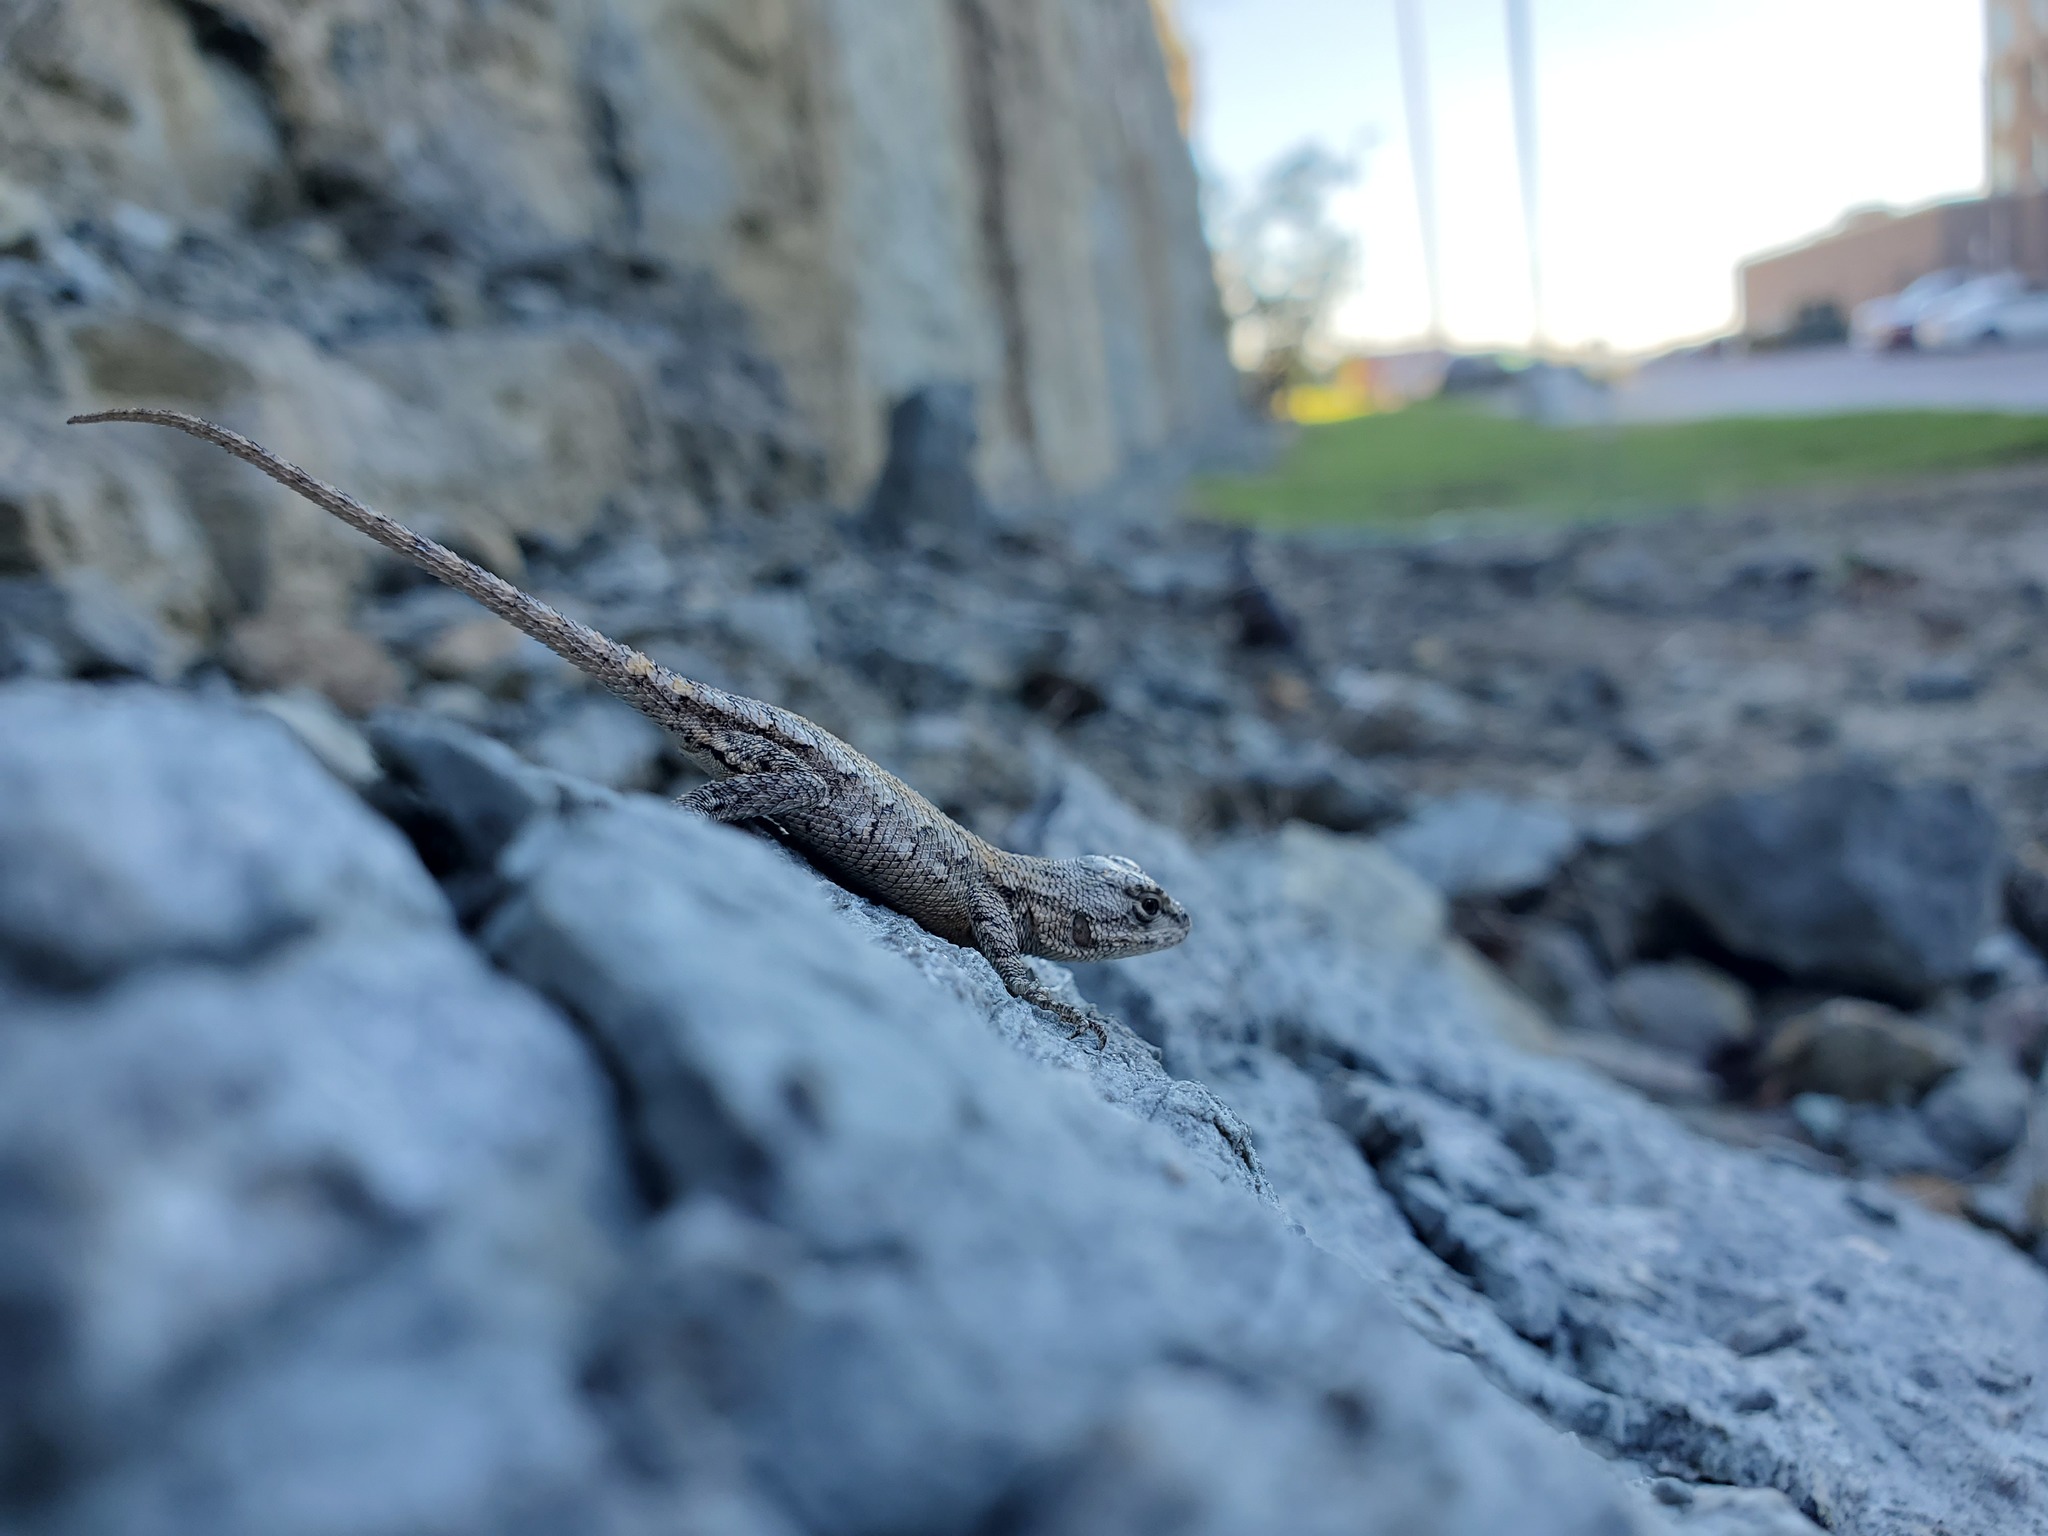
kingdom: Animalia
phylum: Chordata
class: Squamata
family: Phrynosomatidae
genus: Sceloporus
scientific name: Sceloporus undulatus
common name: Eastern fence lizard
